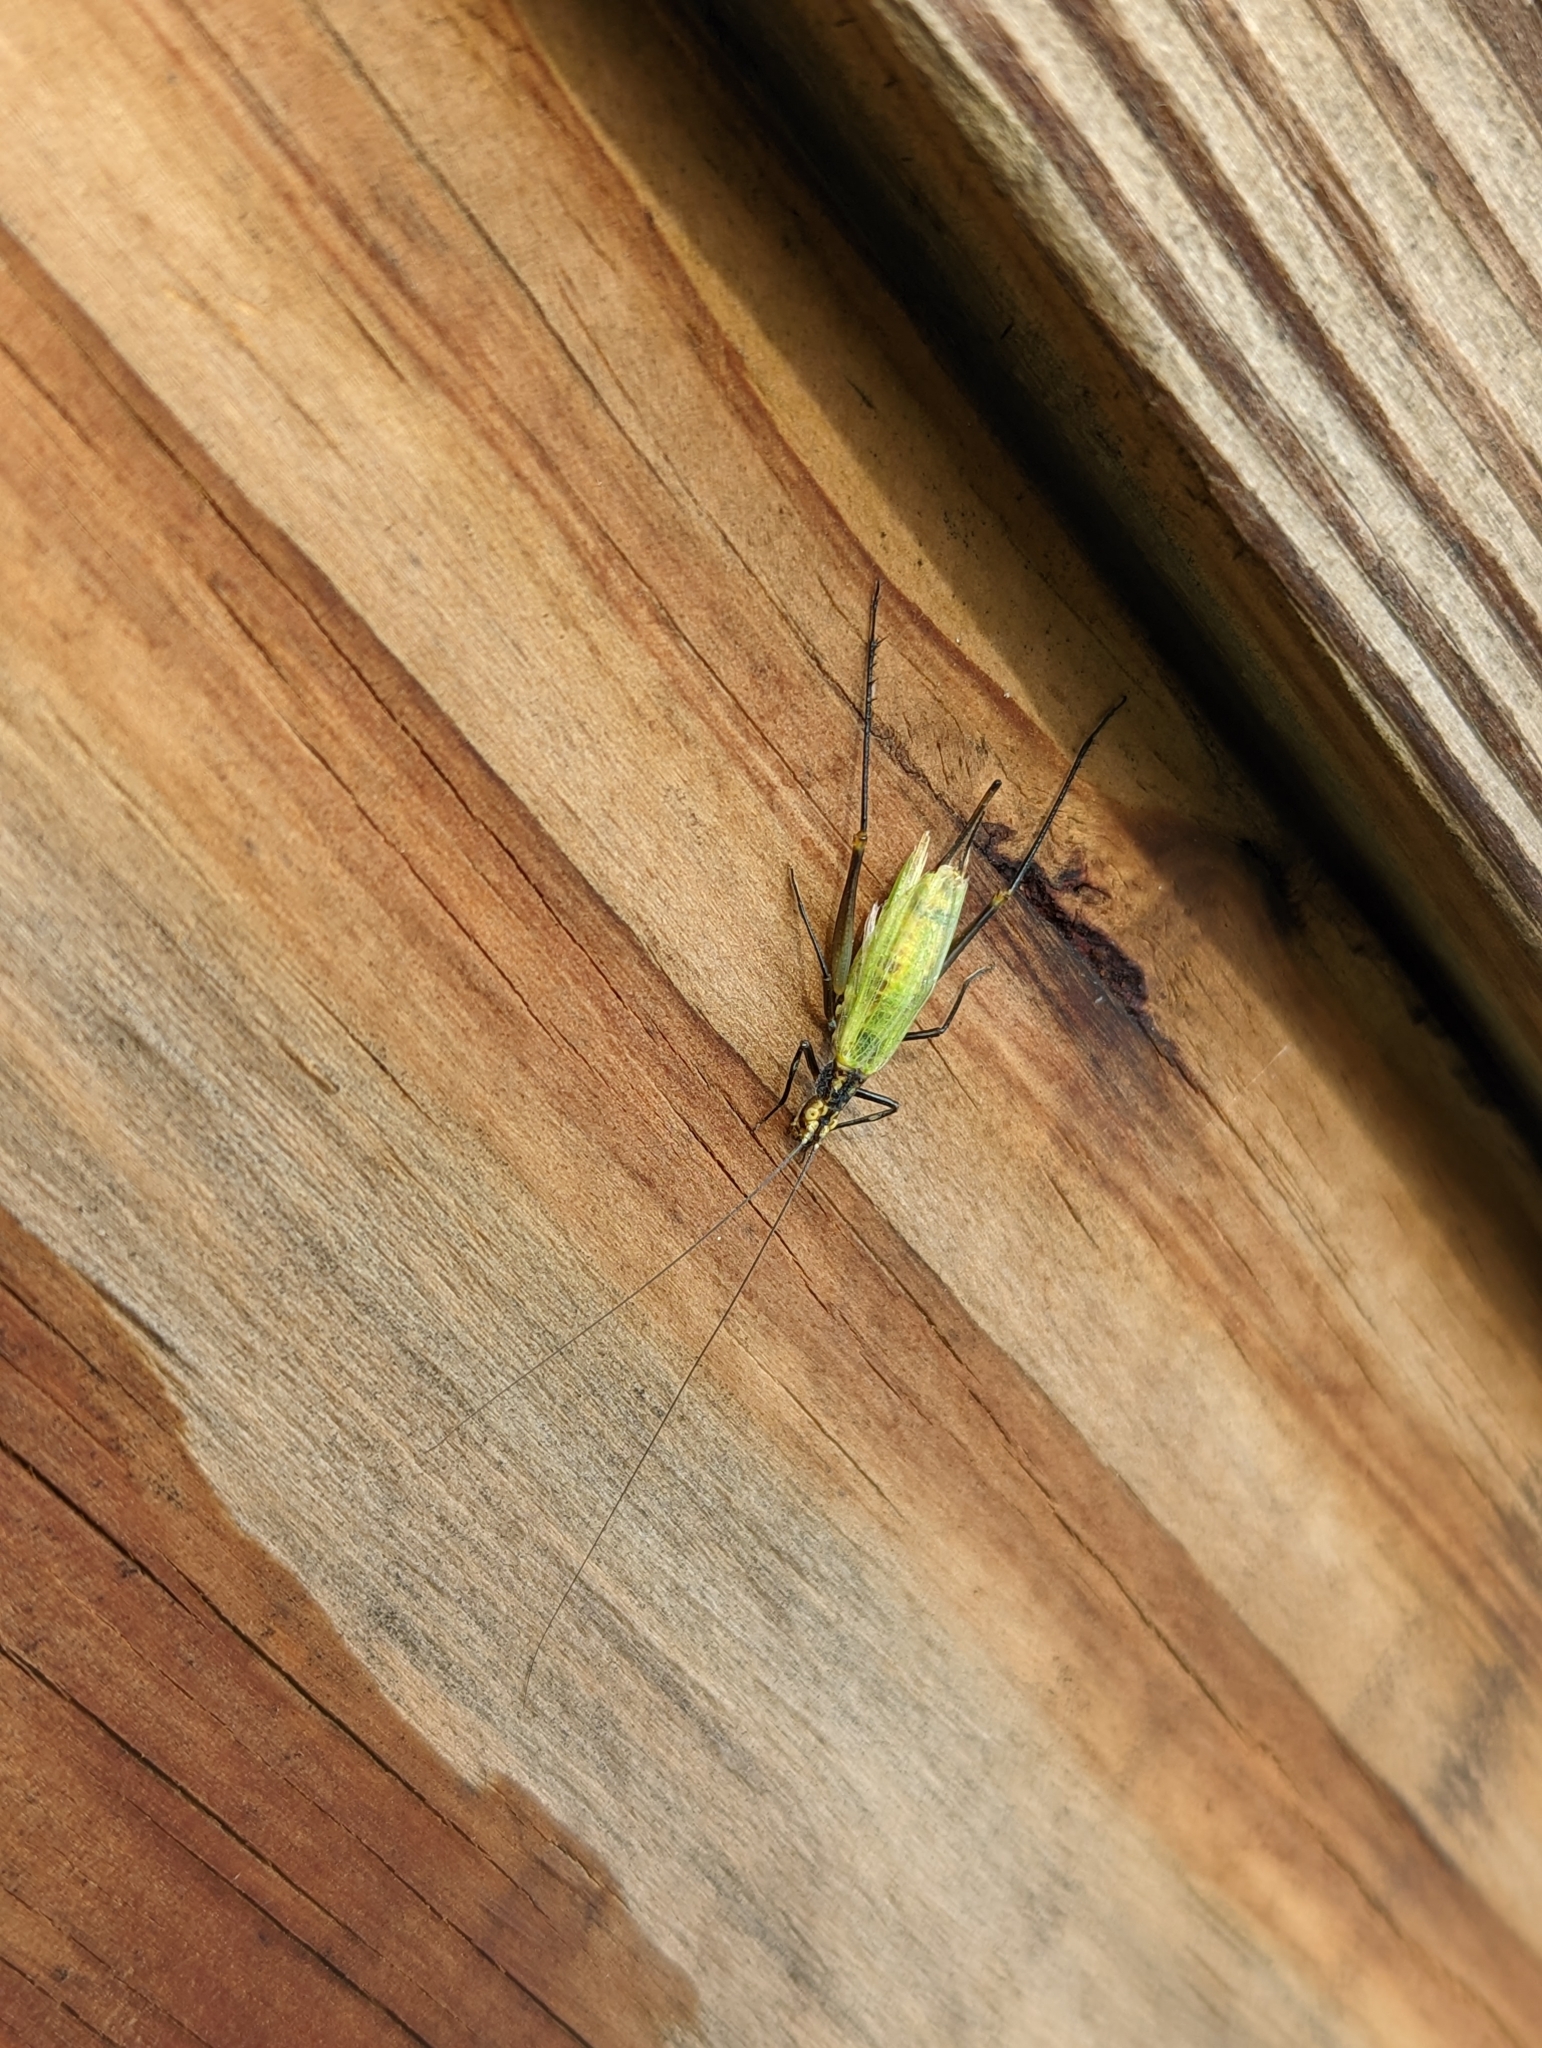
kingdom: Animalia
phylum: Arthropoda
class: Insecta
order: Orthoptera
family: Gryllidae
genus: Oecanthus
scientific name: Oecanthus nigricornis
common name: Black-horned tree cricket
